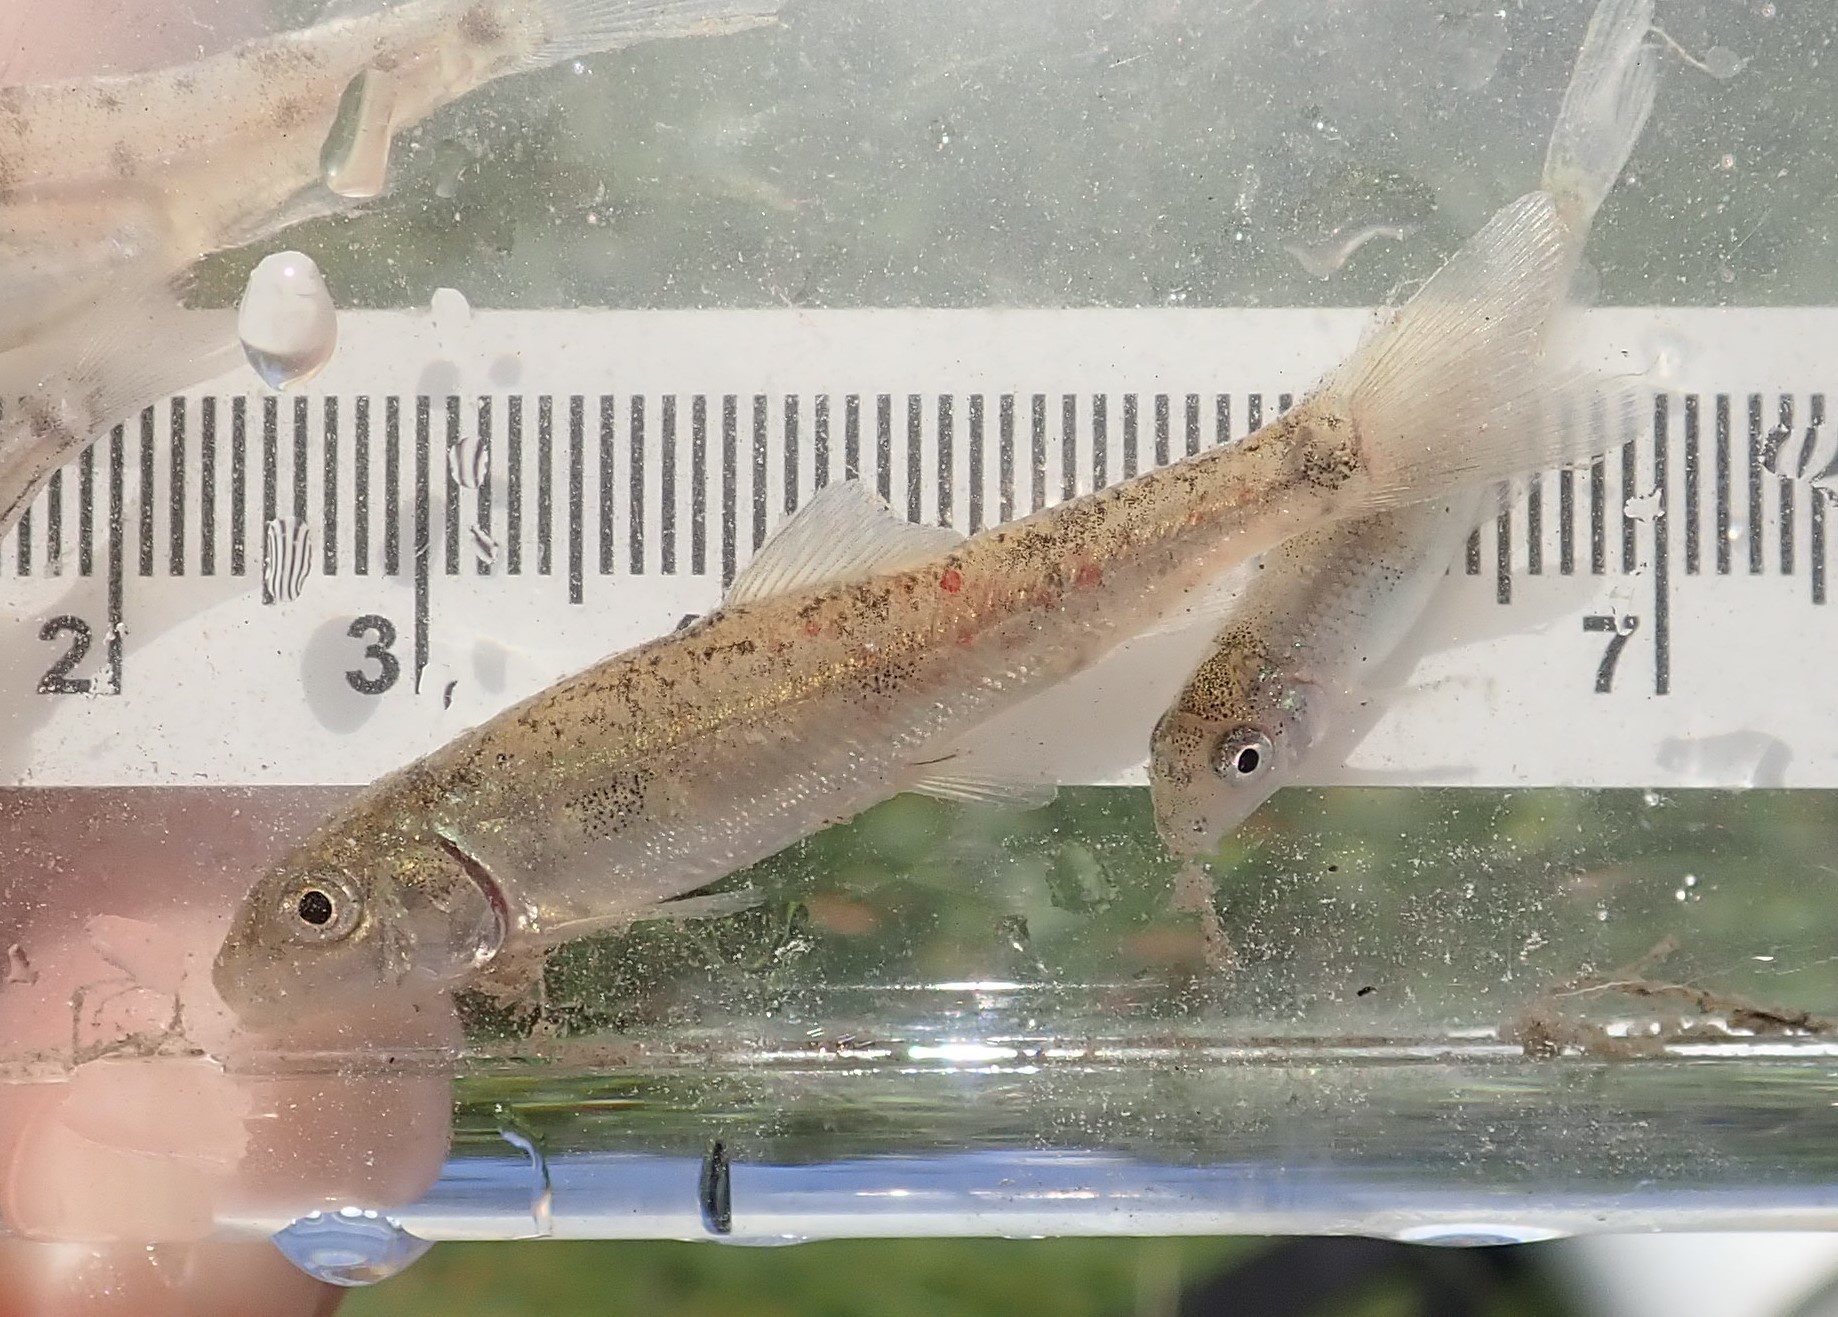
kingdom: Animalia
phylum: Chordata
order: Cypriniformes
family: Catostomidae
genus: Catostomus
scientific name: Catostomus commersonii
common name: White sucker
